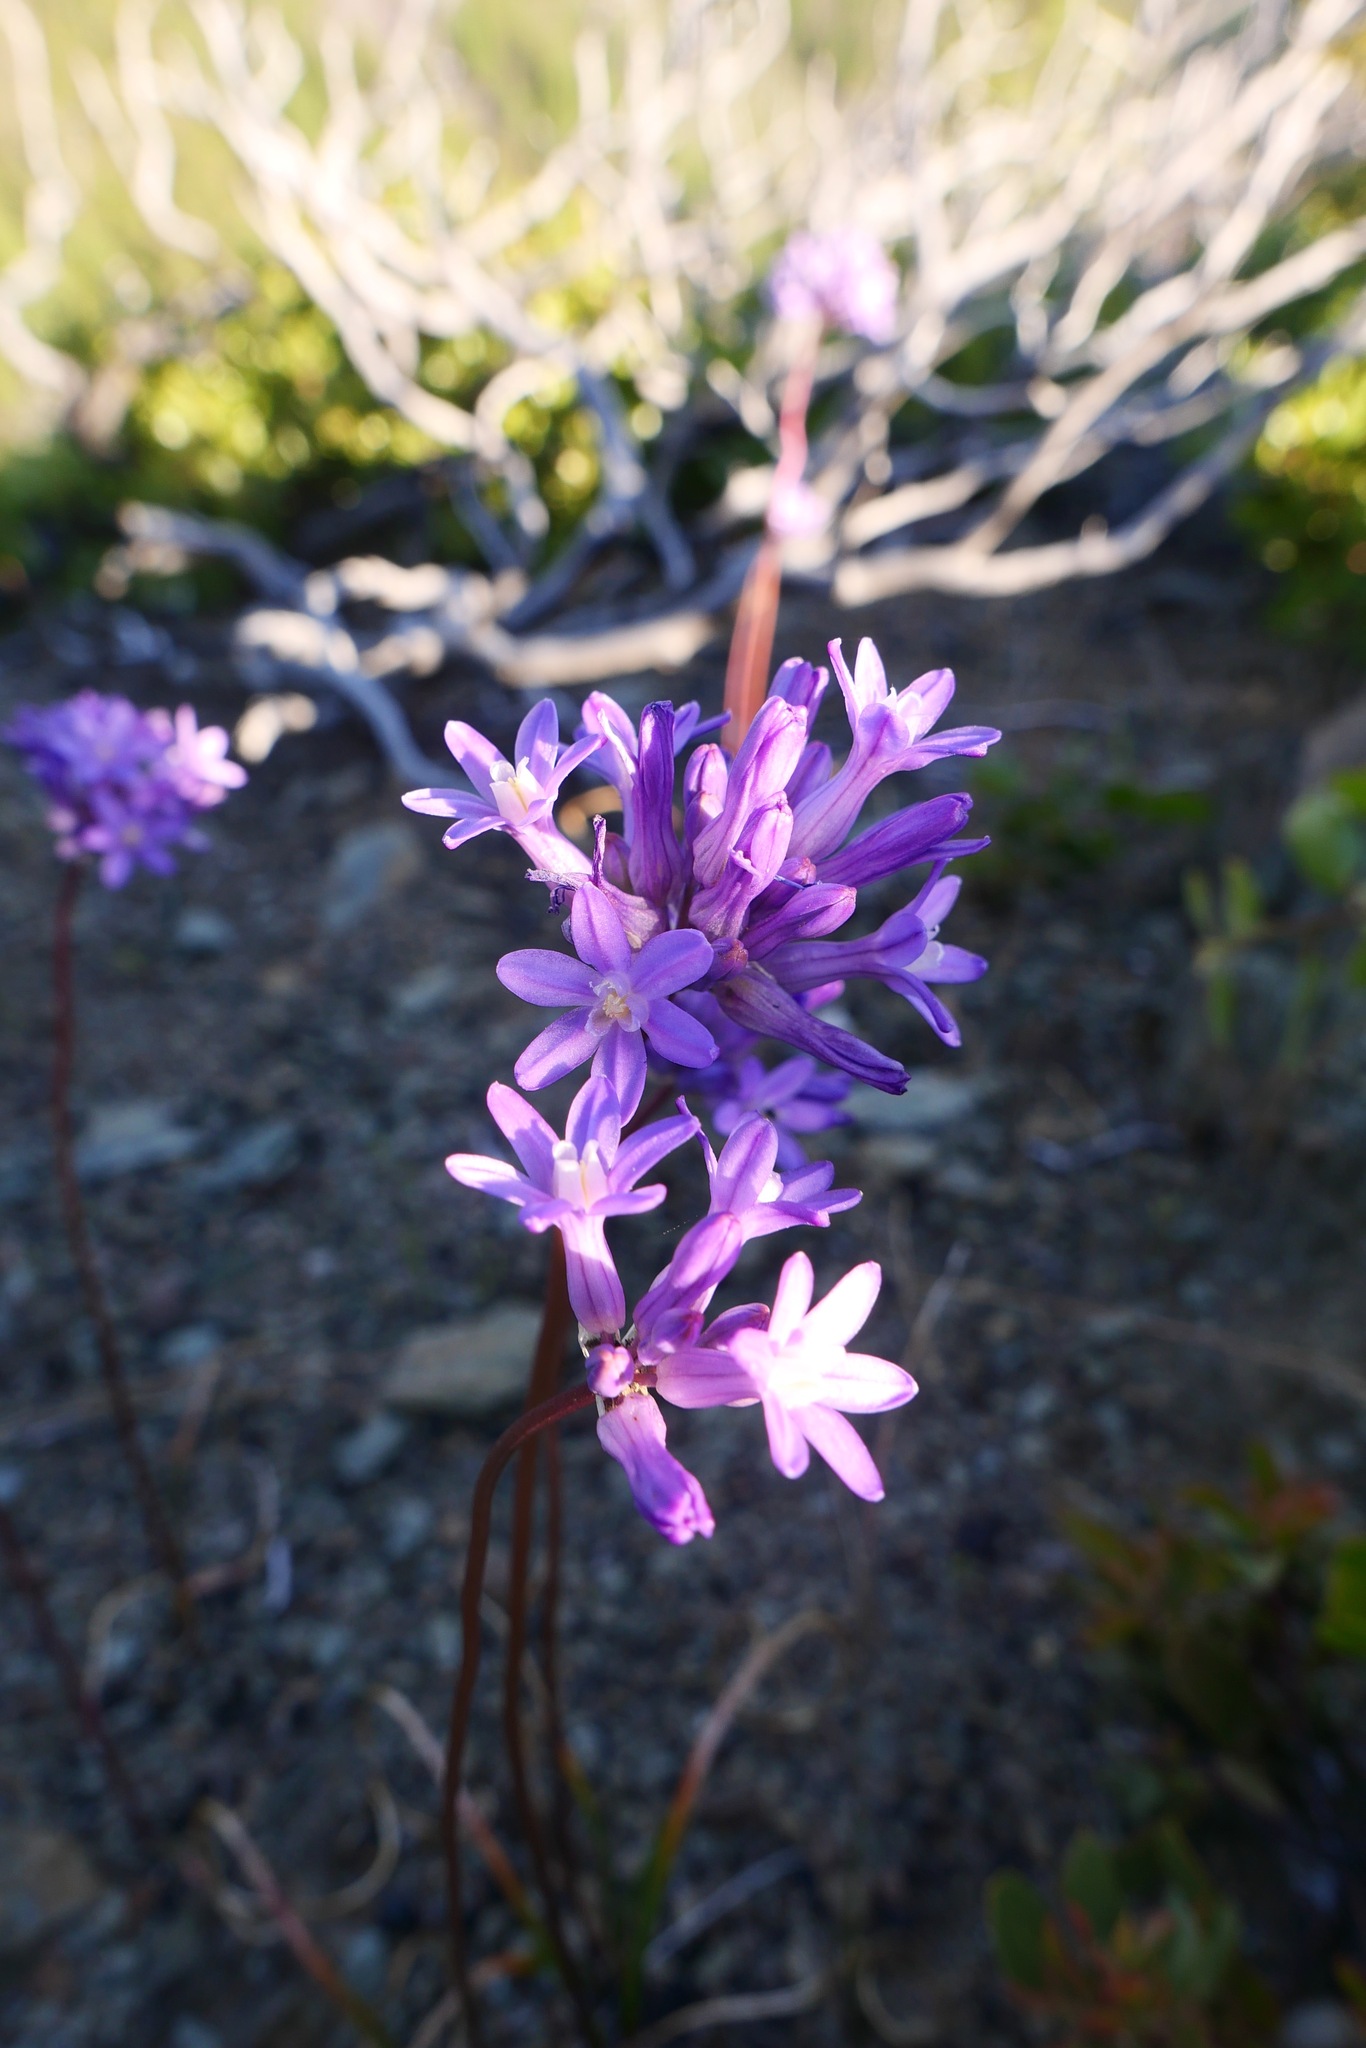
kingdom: Plantae
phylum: Tracheophyta
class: Liliopsida
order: Asparagales
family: Asparagaceae
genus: Dichelostemma
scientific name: Dichelostemma multiflorum
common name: Round-tooth ookow
